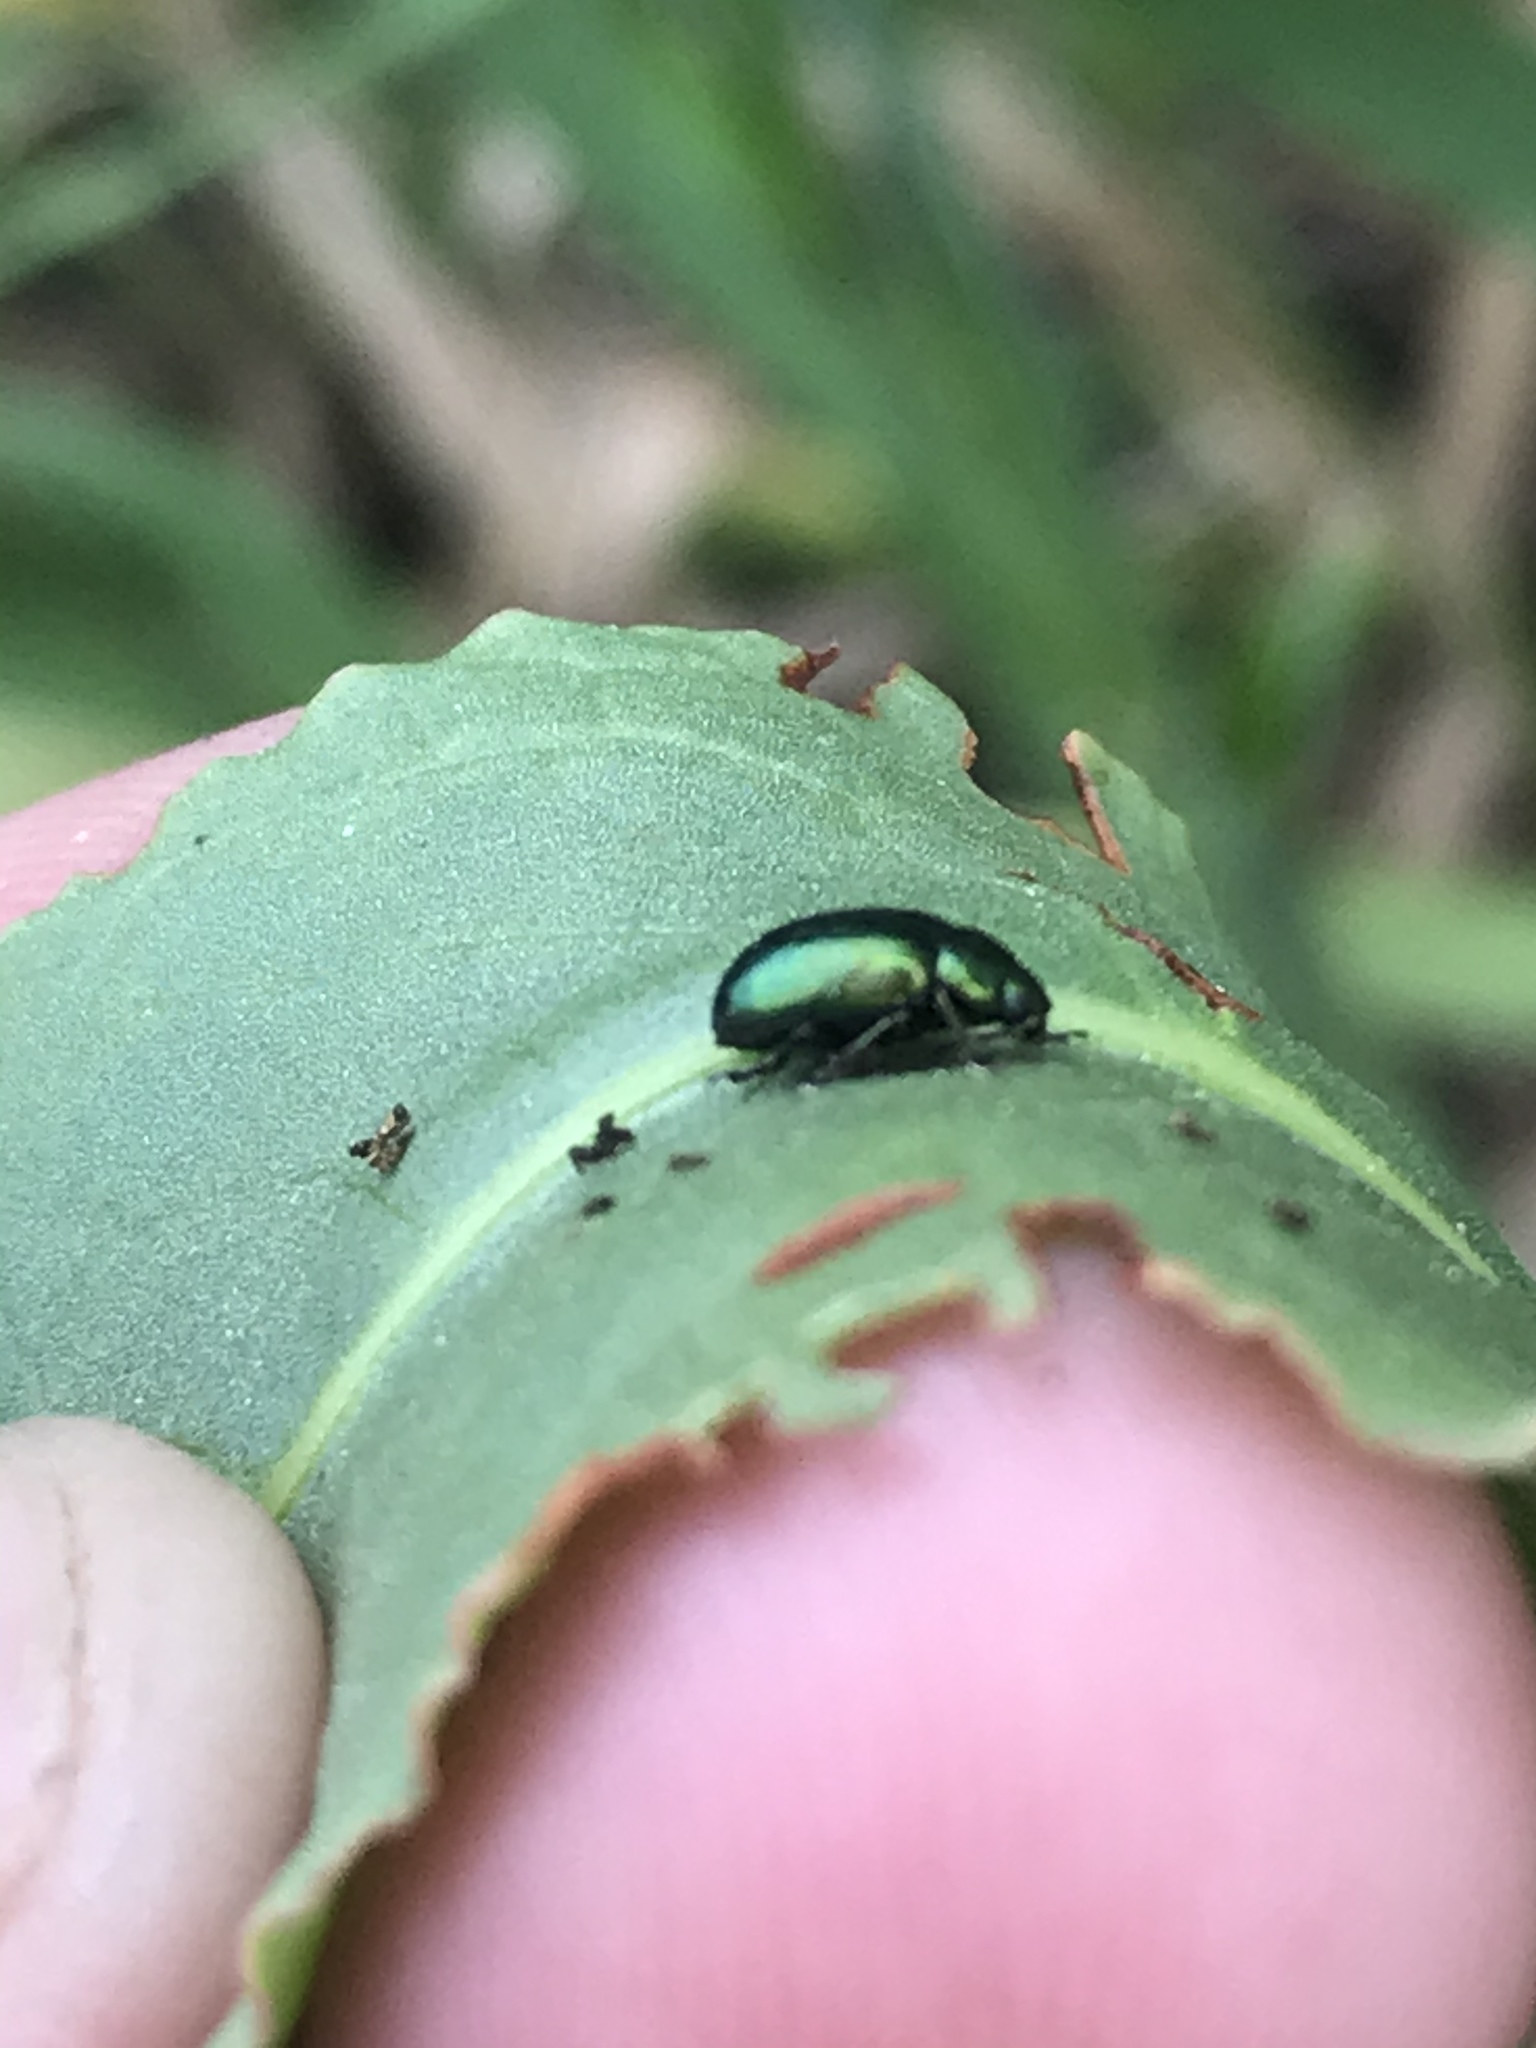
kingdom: Animalia
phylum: Arthropoda
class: Insecta
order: Coleoptera
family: Chrysomelidae
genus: Gastrophysa
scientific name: Gastrophysa cyanea
